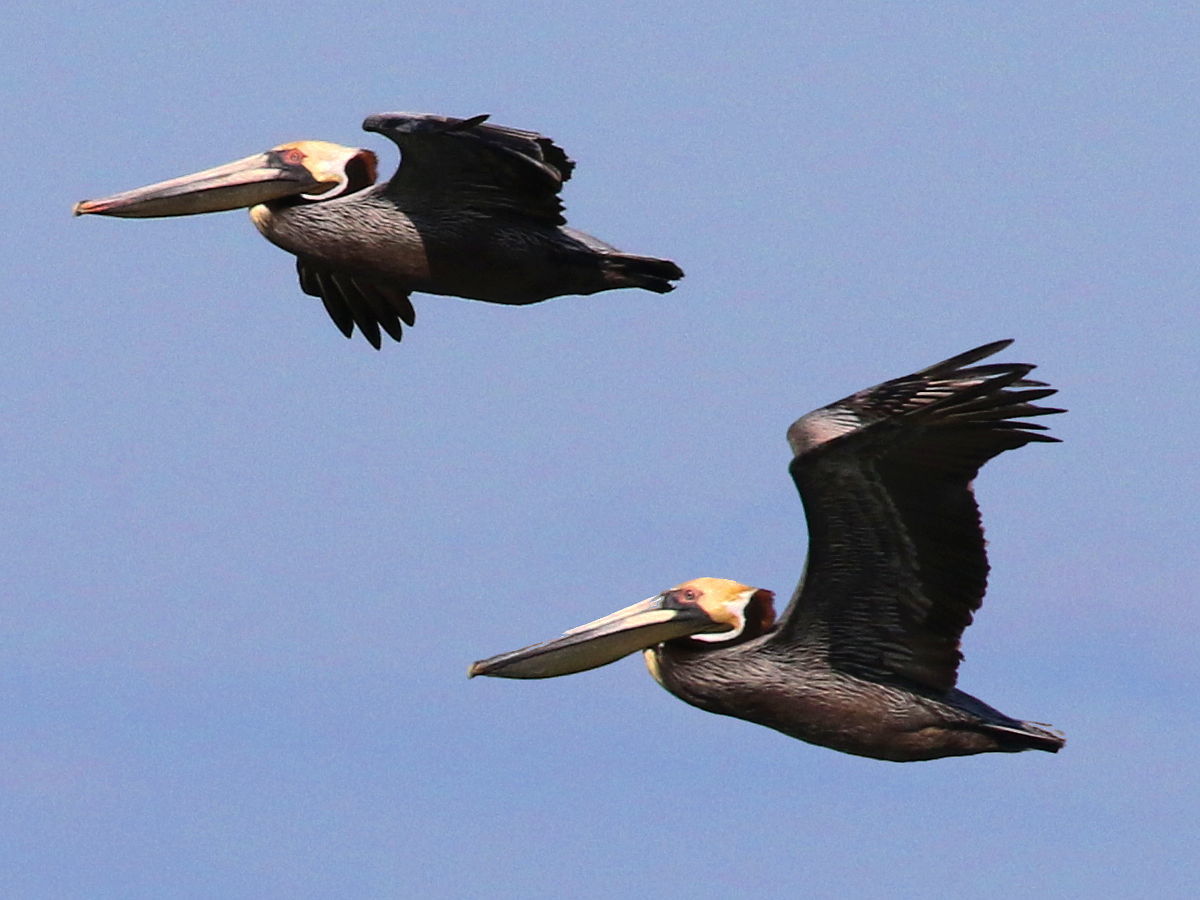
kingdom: Animalia
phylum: Chordata
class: Aves
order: Pelecaniformes
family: Pelecanidae
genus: Pelecanus
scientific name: Pelecanus occidentalis
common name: Brown pelican
